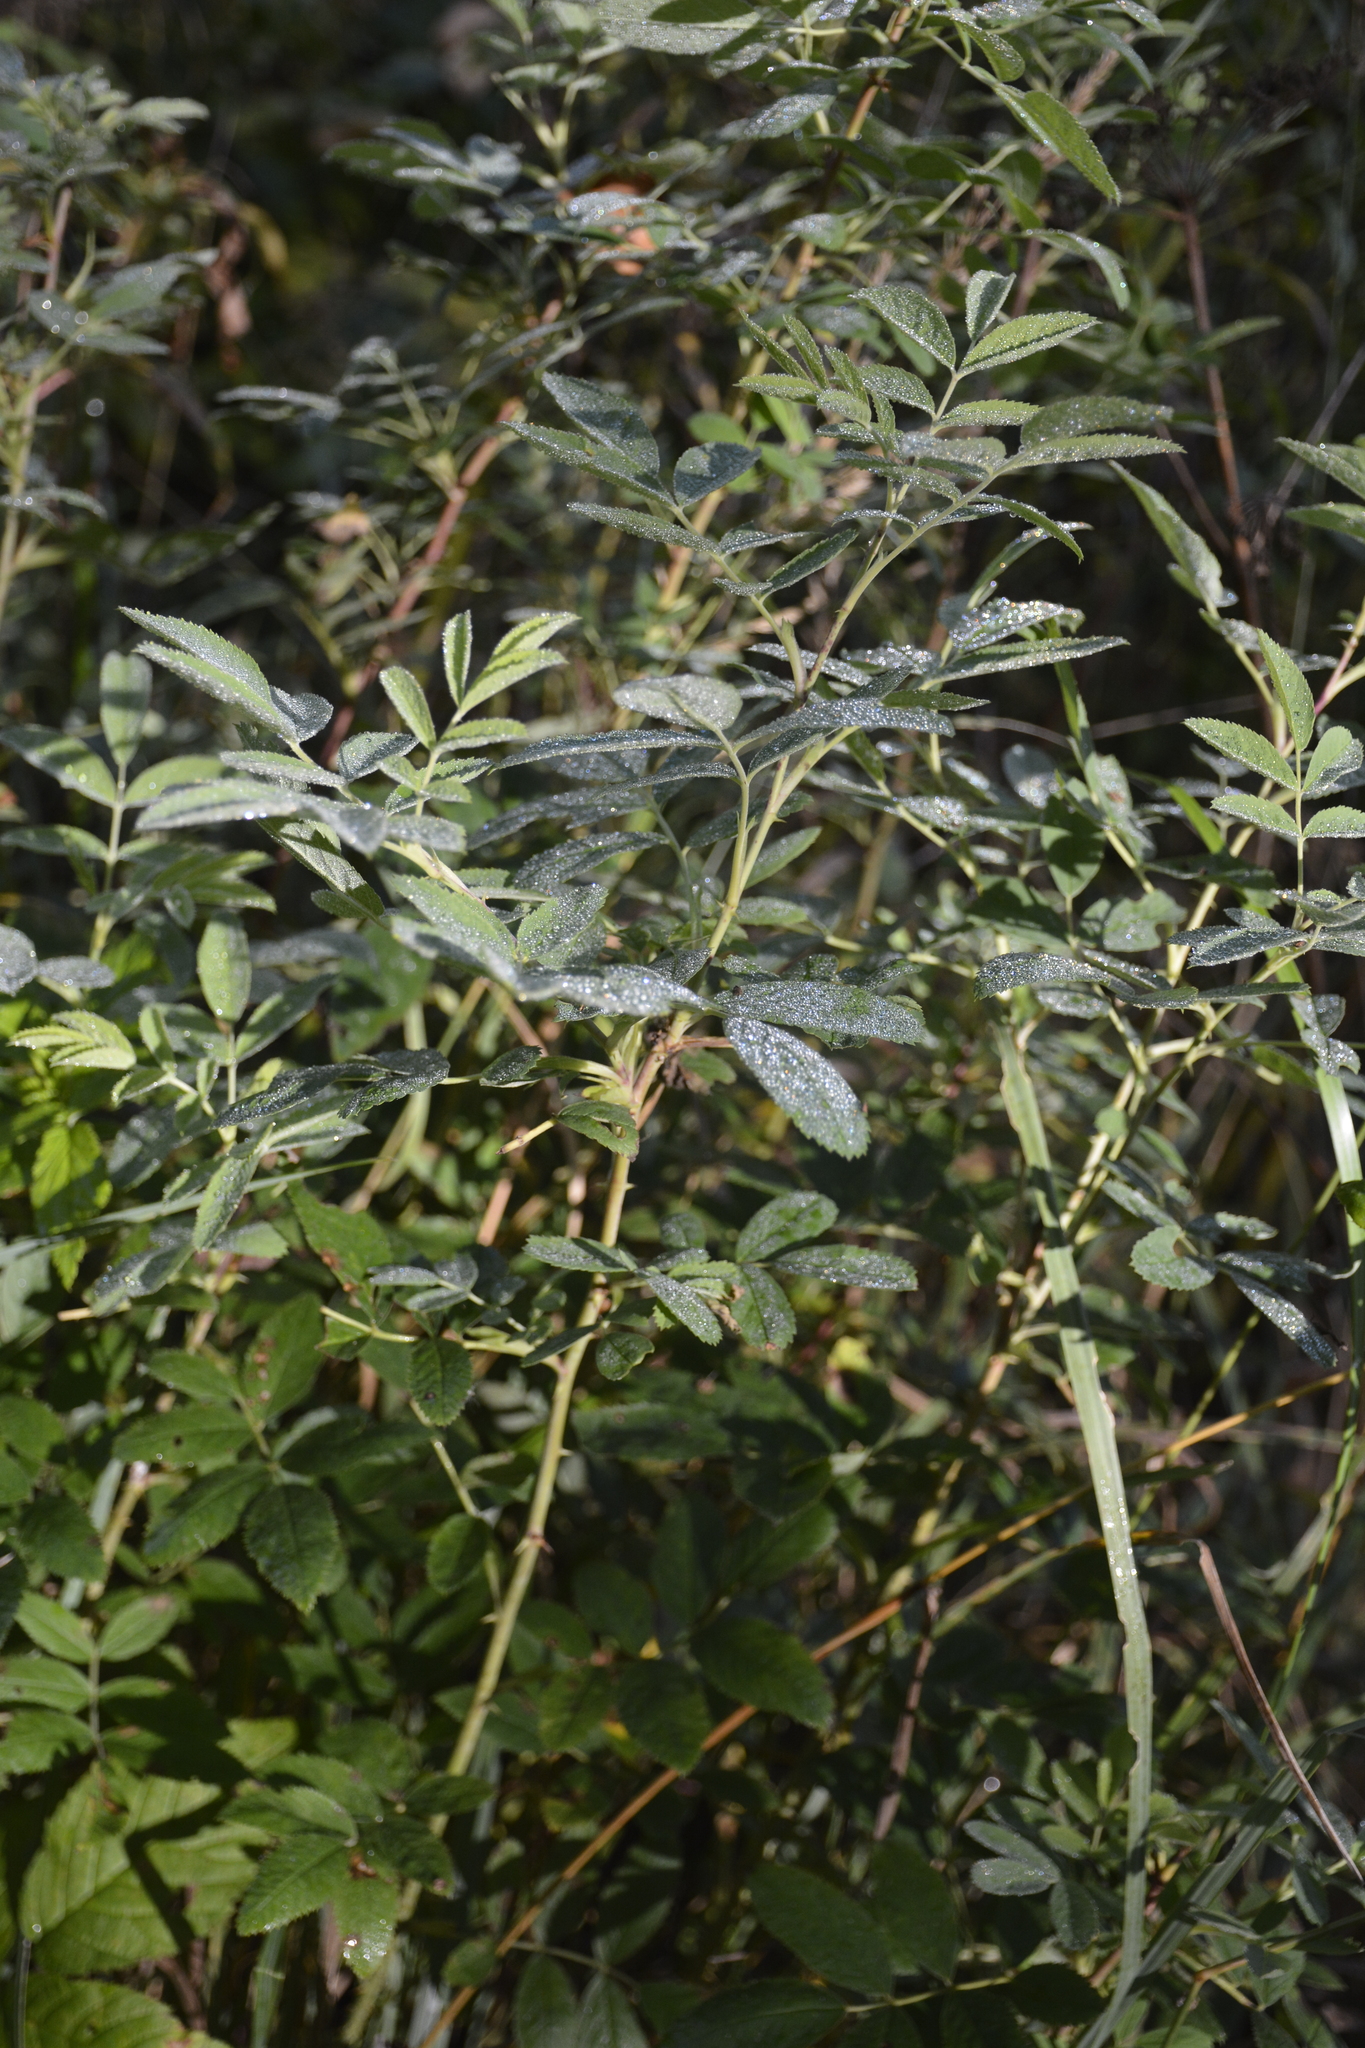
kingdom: Plantae
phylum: Tracheophyta
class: Magnoliopsida
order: Rosales
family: Rosaceae
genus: Rosa
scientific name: Rosa majalis
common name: Cinnamon rose
